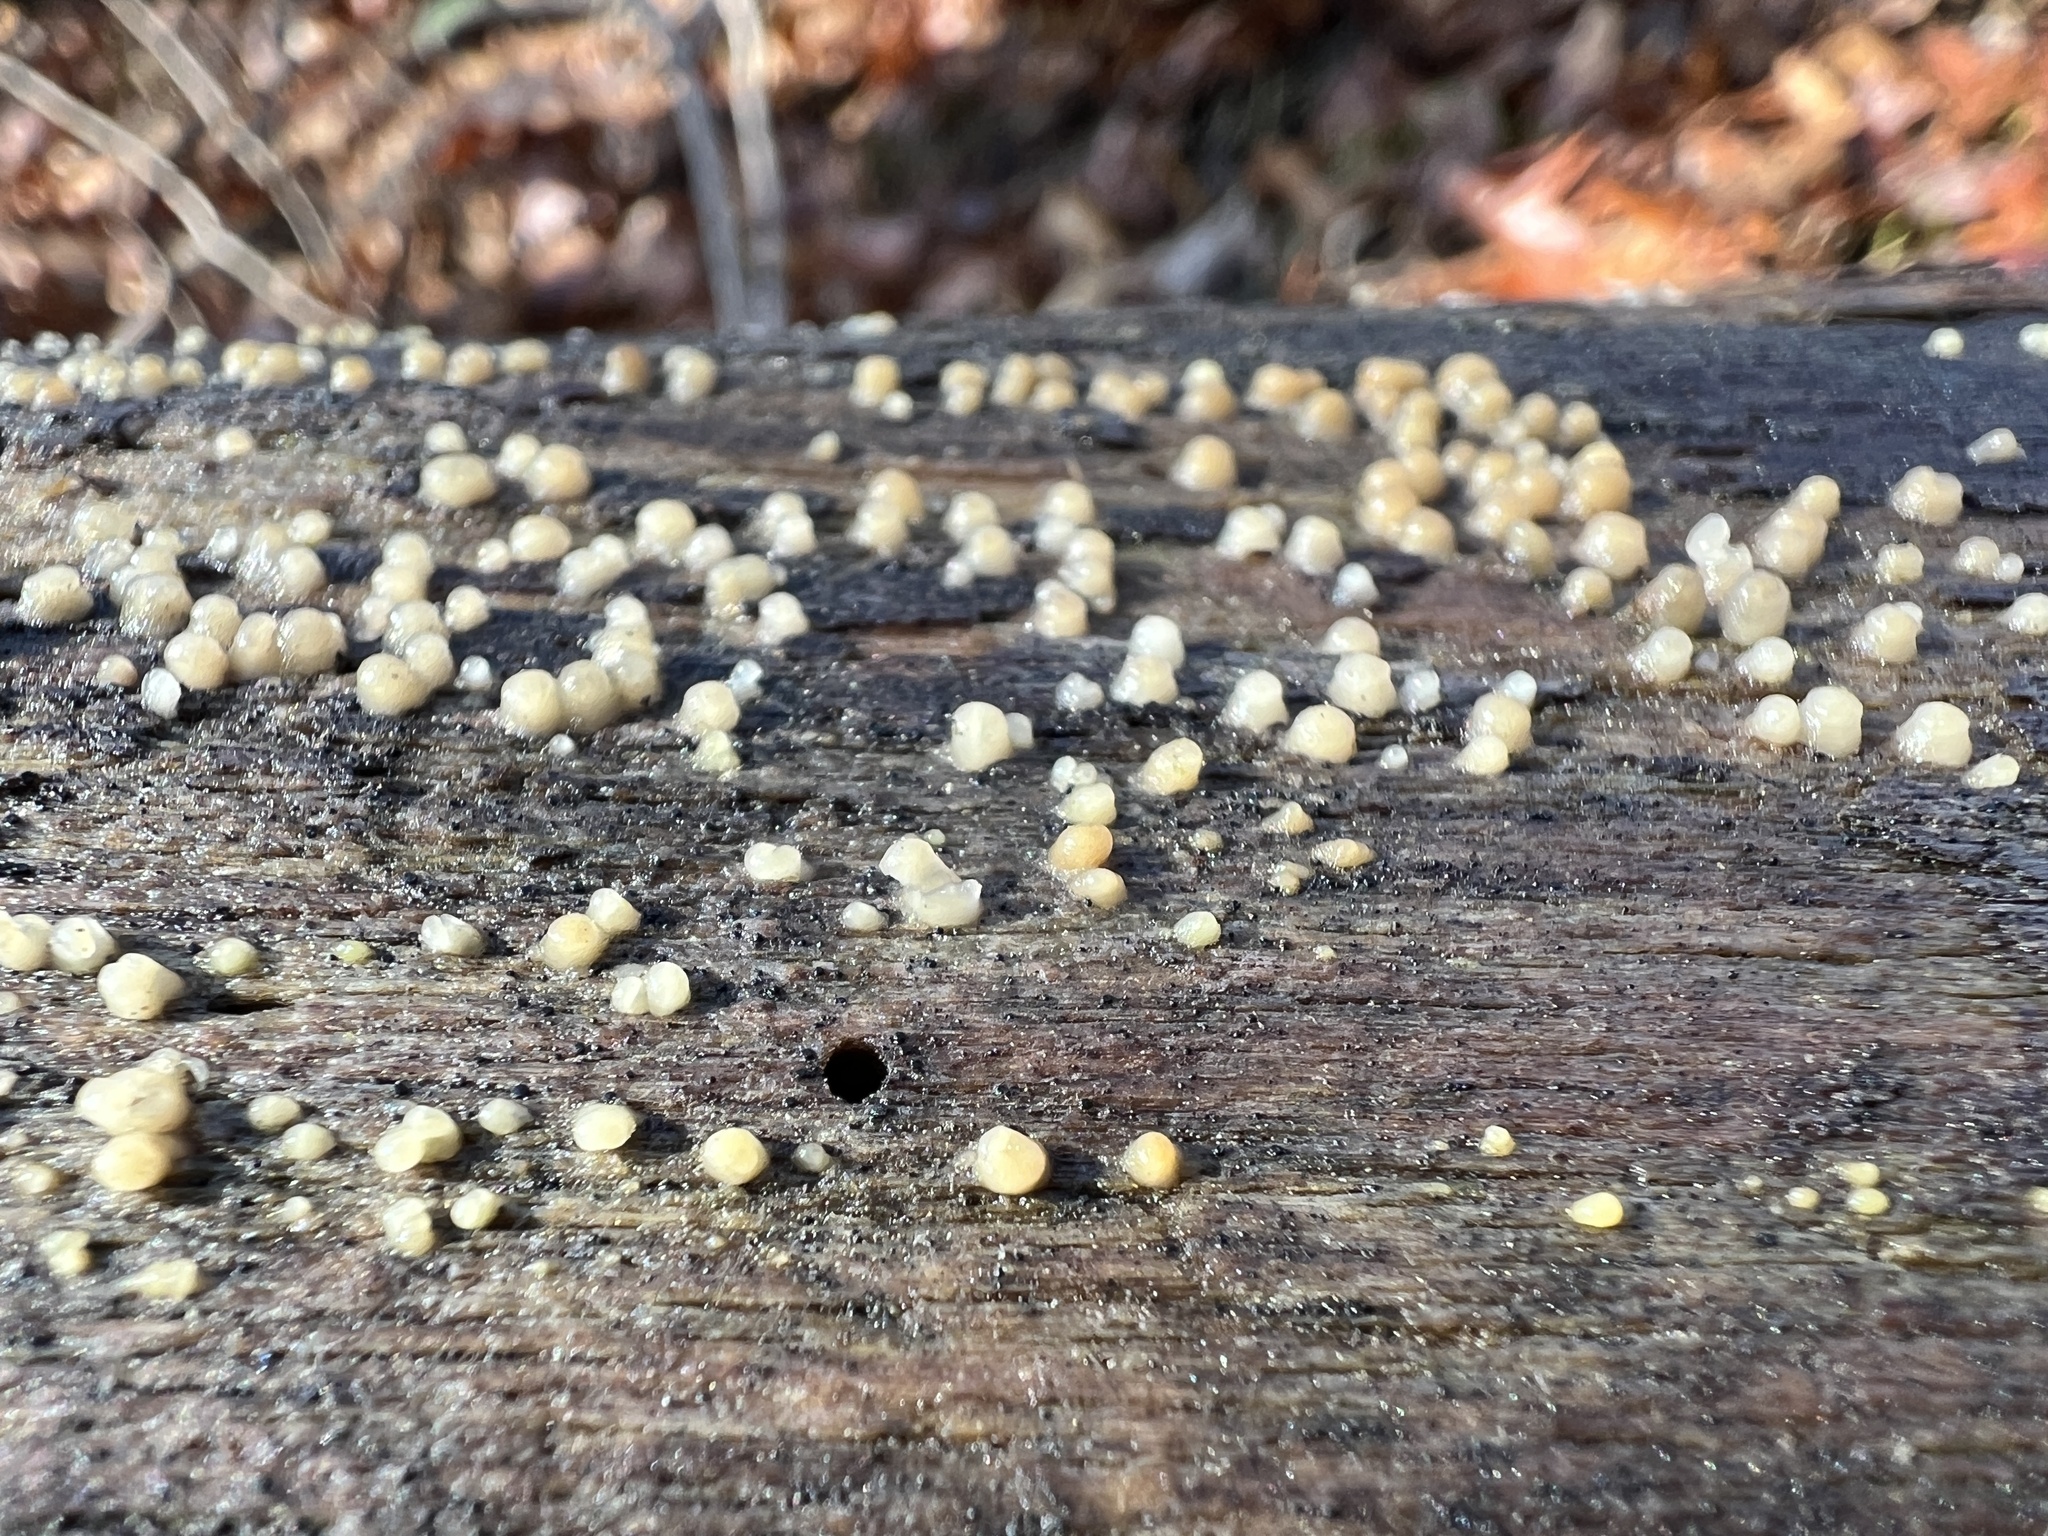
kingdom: Fungi
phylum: Basidiomycota
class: Atractiellomycetes
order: Atractiellales
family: Phleogenaceae
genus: Helicogloea
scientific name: Helicogloea compressa
